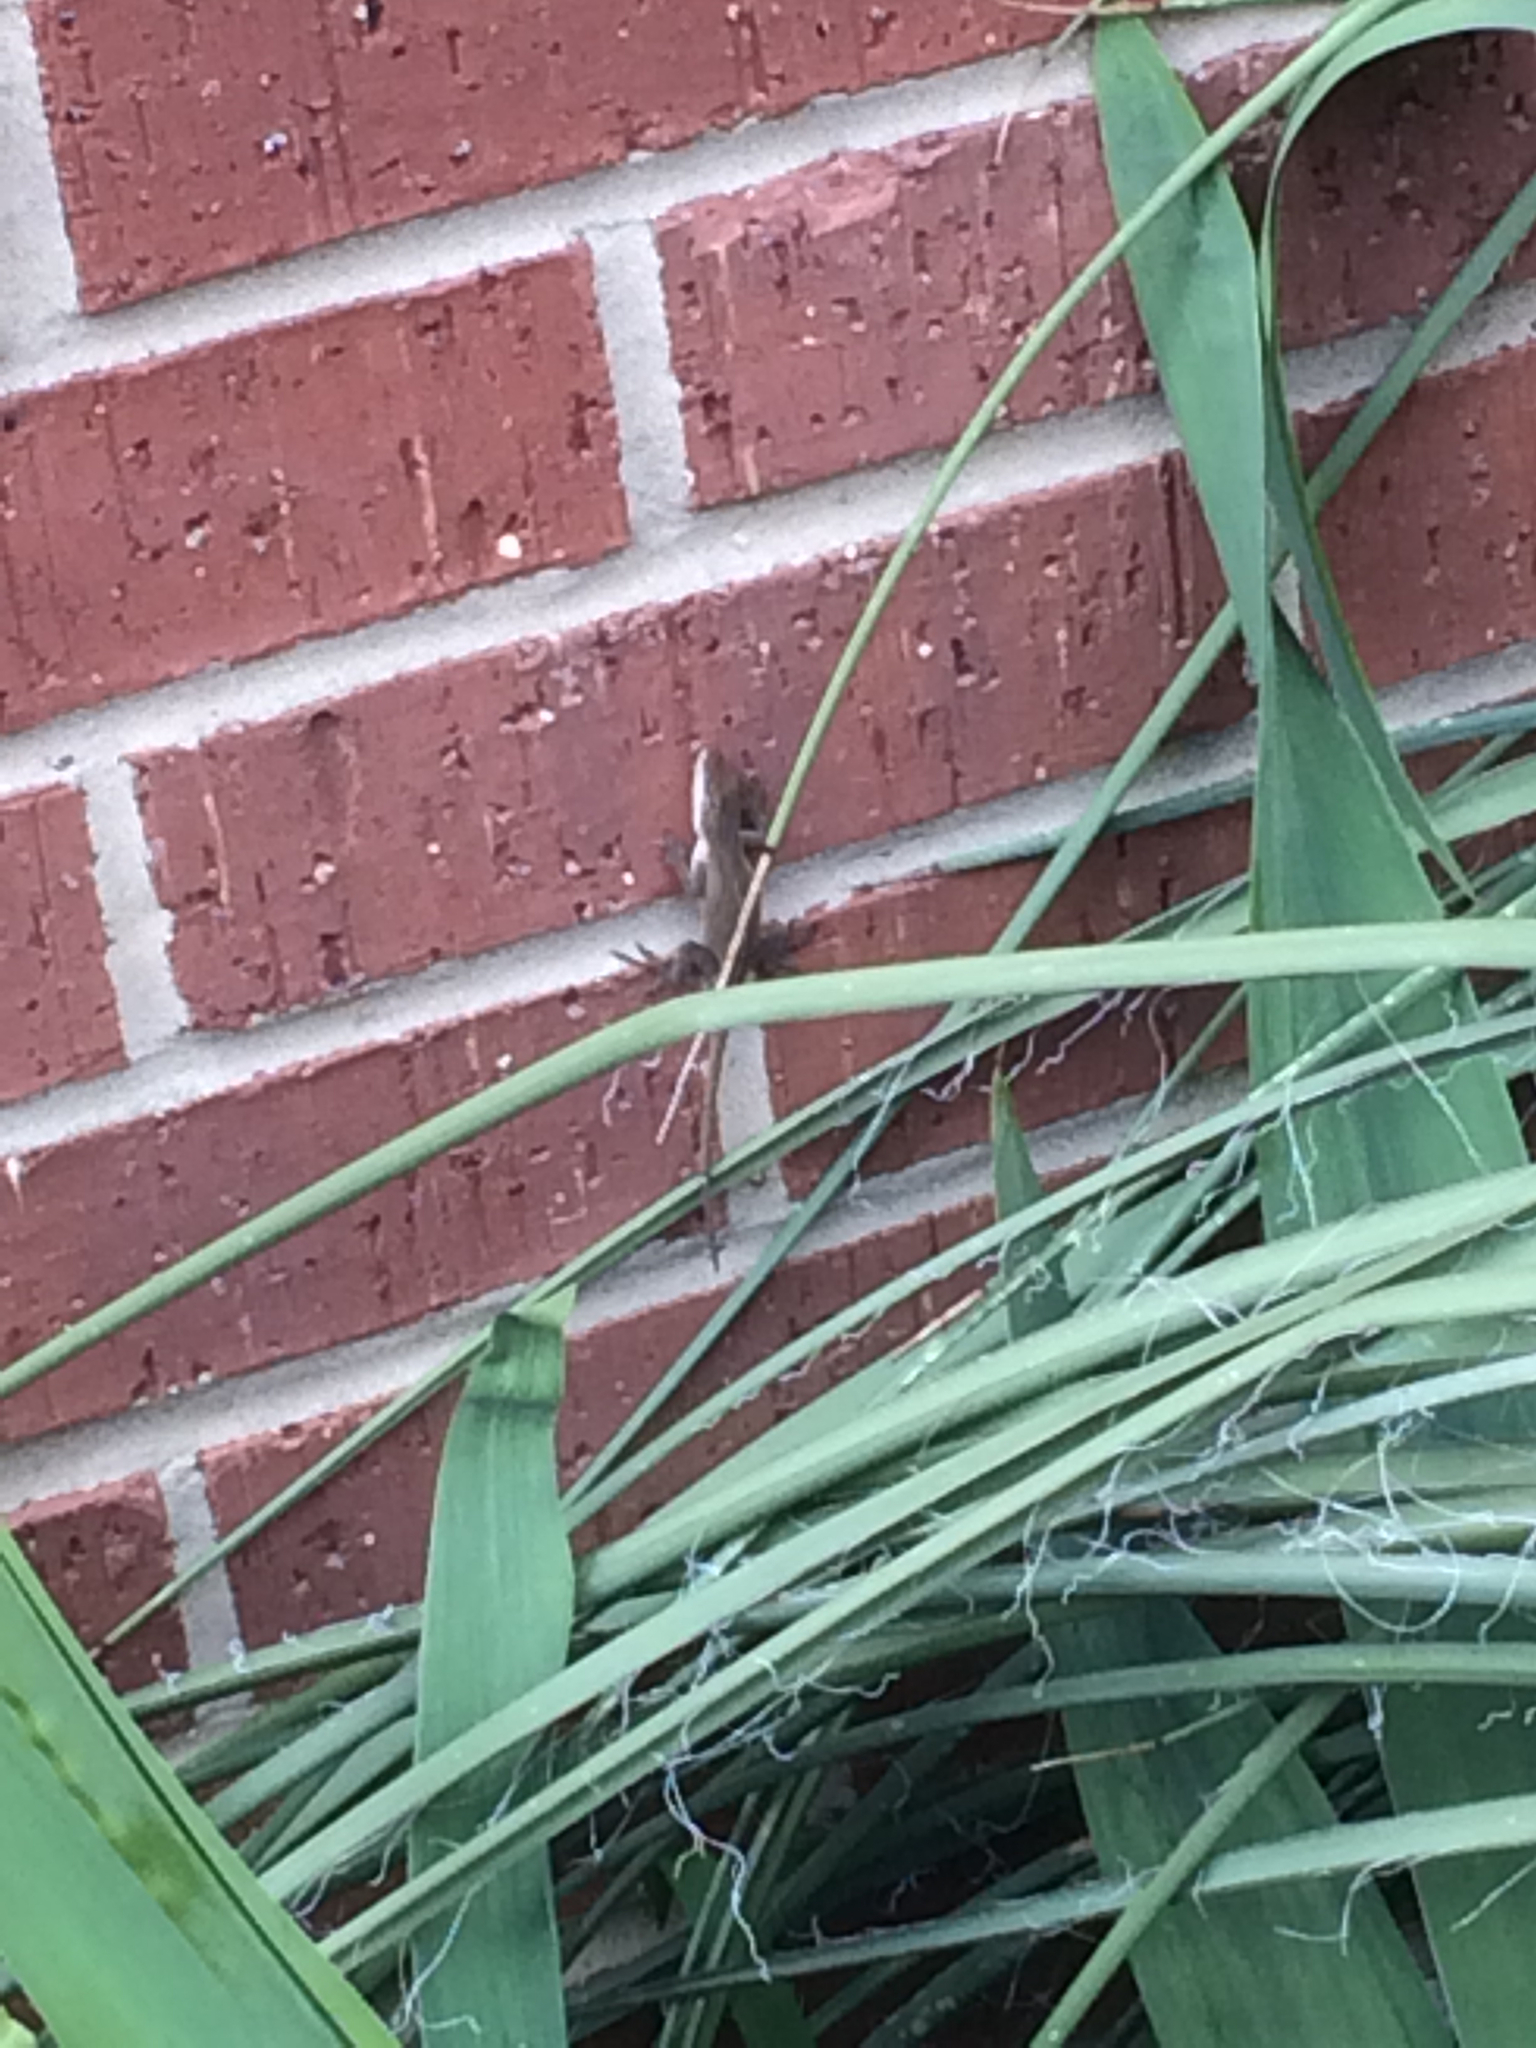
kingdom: Animalia
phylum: Chordata
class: Squamata
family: Dactyloidae
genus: Anolis
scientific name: Anolis carolinensis
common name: Green anole
